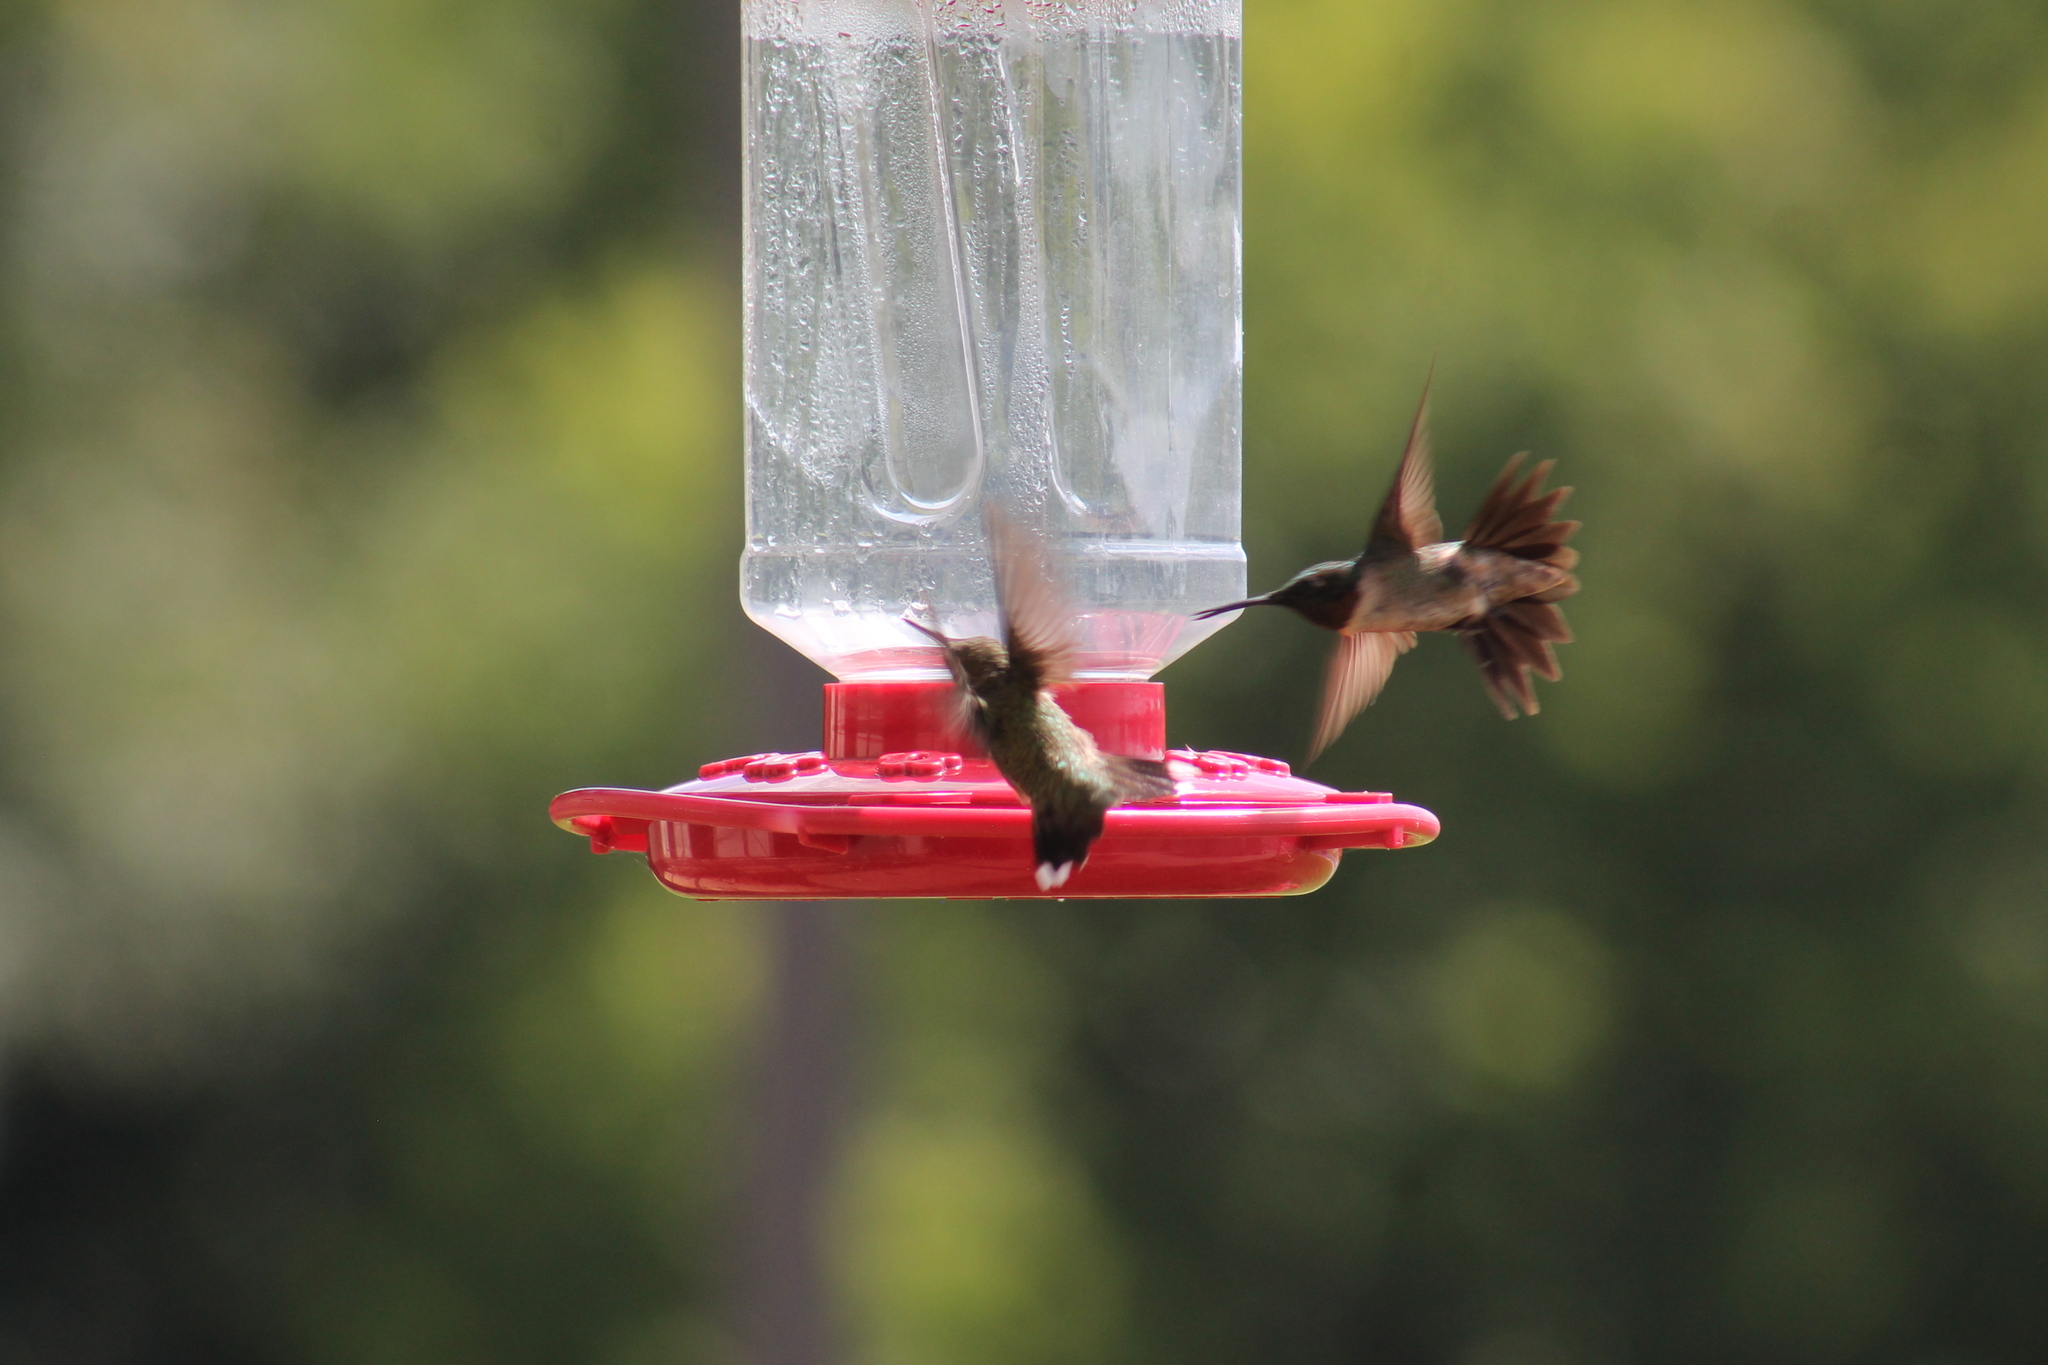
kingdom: Animalia
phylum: Chordata
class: Aves
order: Apodiformes
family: Trochilidae
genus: Archilochus
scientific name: Archilochus colubris
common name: Ruby-throated hummingbird
